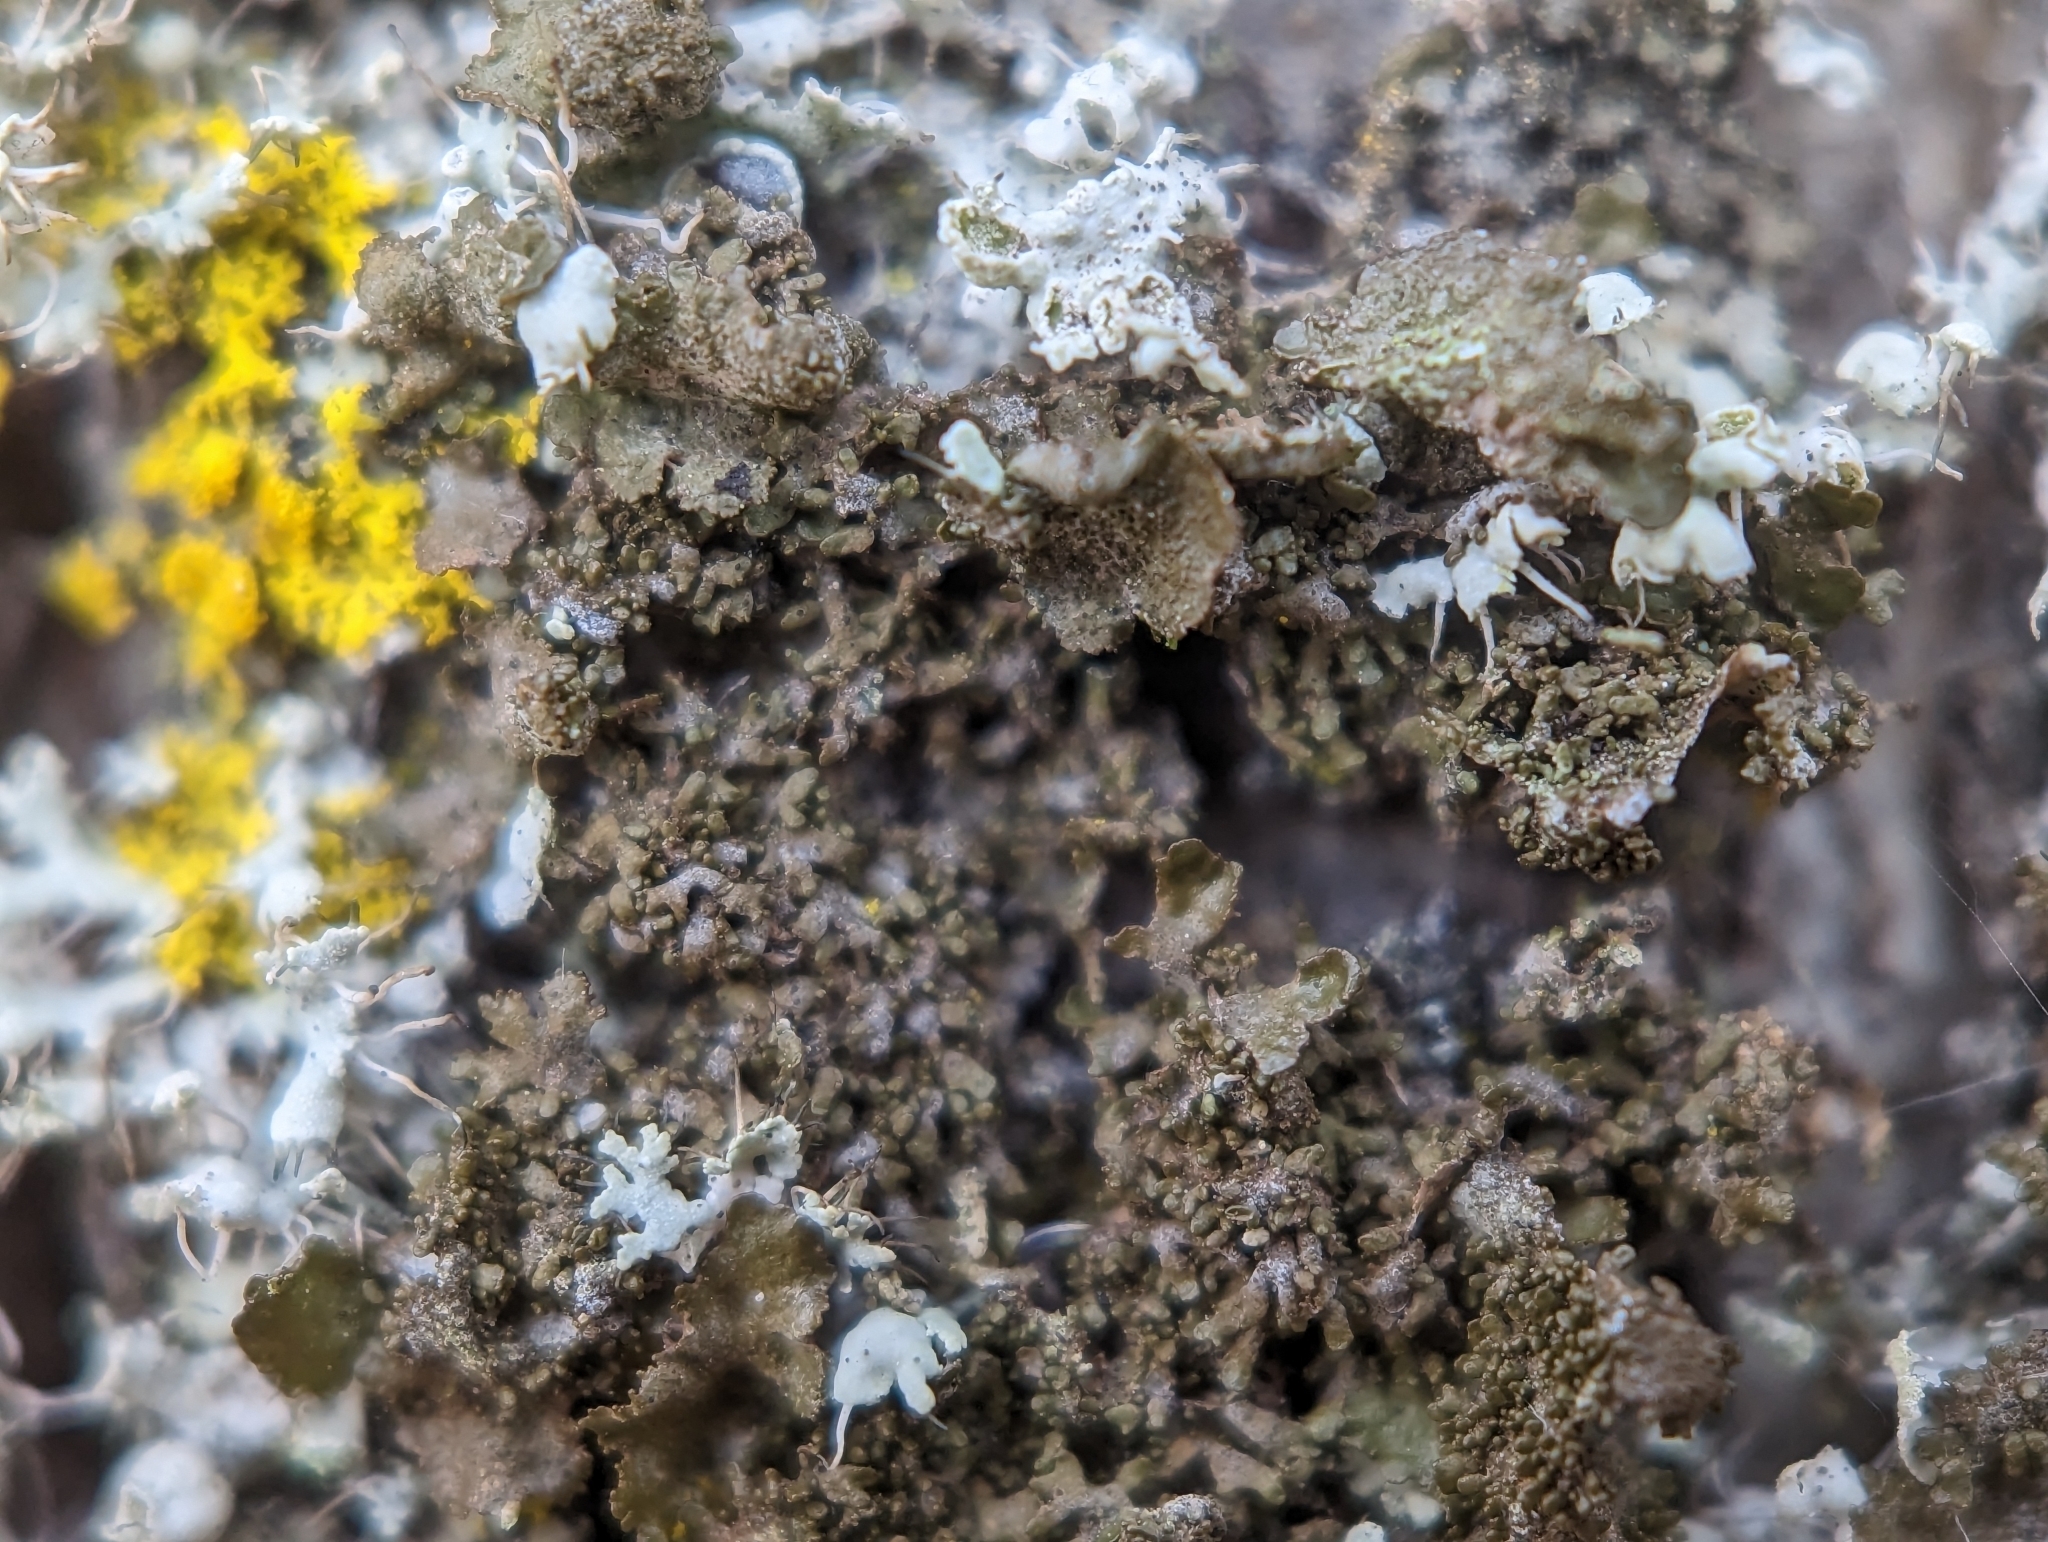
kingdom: Fungi
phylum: Ascomycota
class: Lecanoromycetes
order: Lecanorales
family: Parmeliaceae
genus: Melanohalea
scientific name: Melanohalea exasperatula
